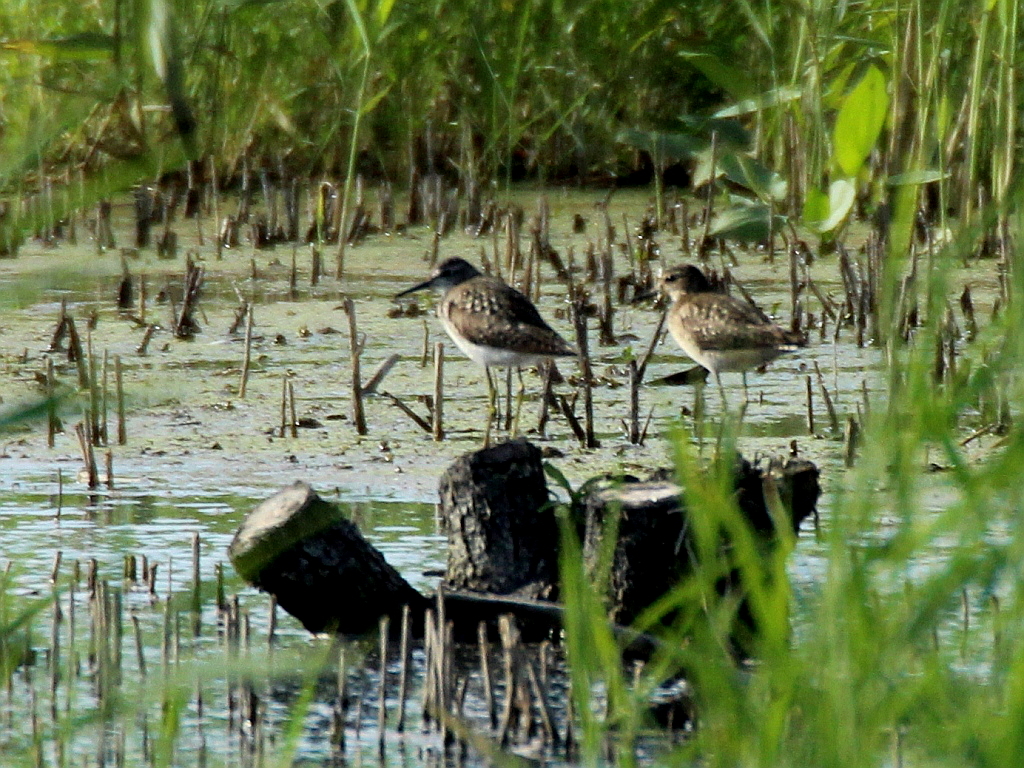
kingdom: Animalia
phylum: Chordata
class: Aves
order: Charadriiformes
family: Scolopacidae
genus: Tringa
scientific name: Tringa glareola
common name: Wood sandpiper
